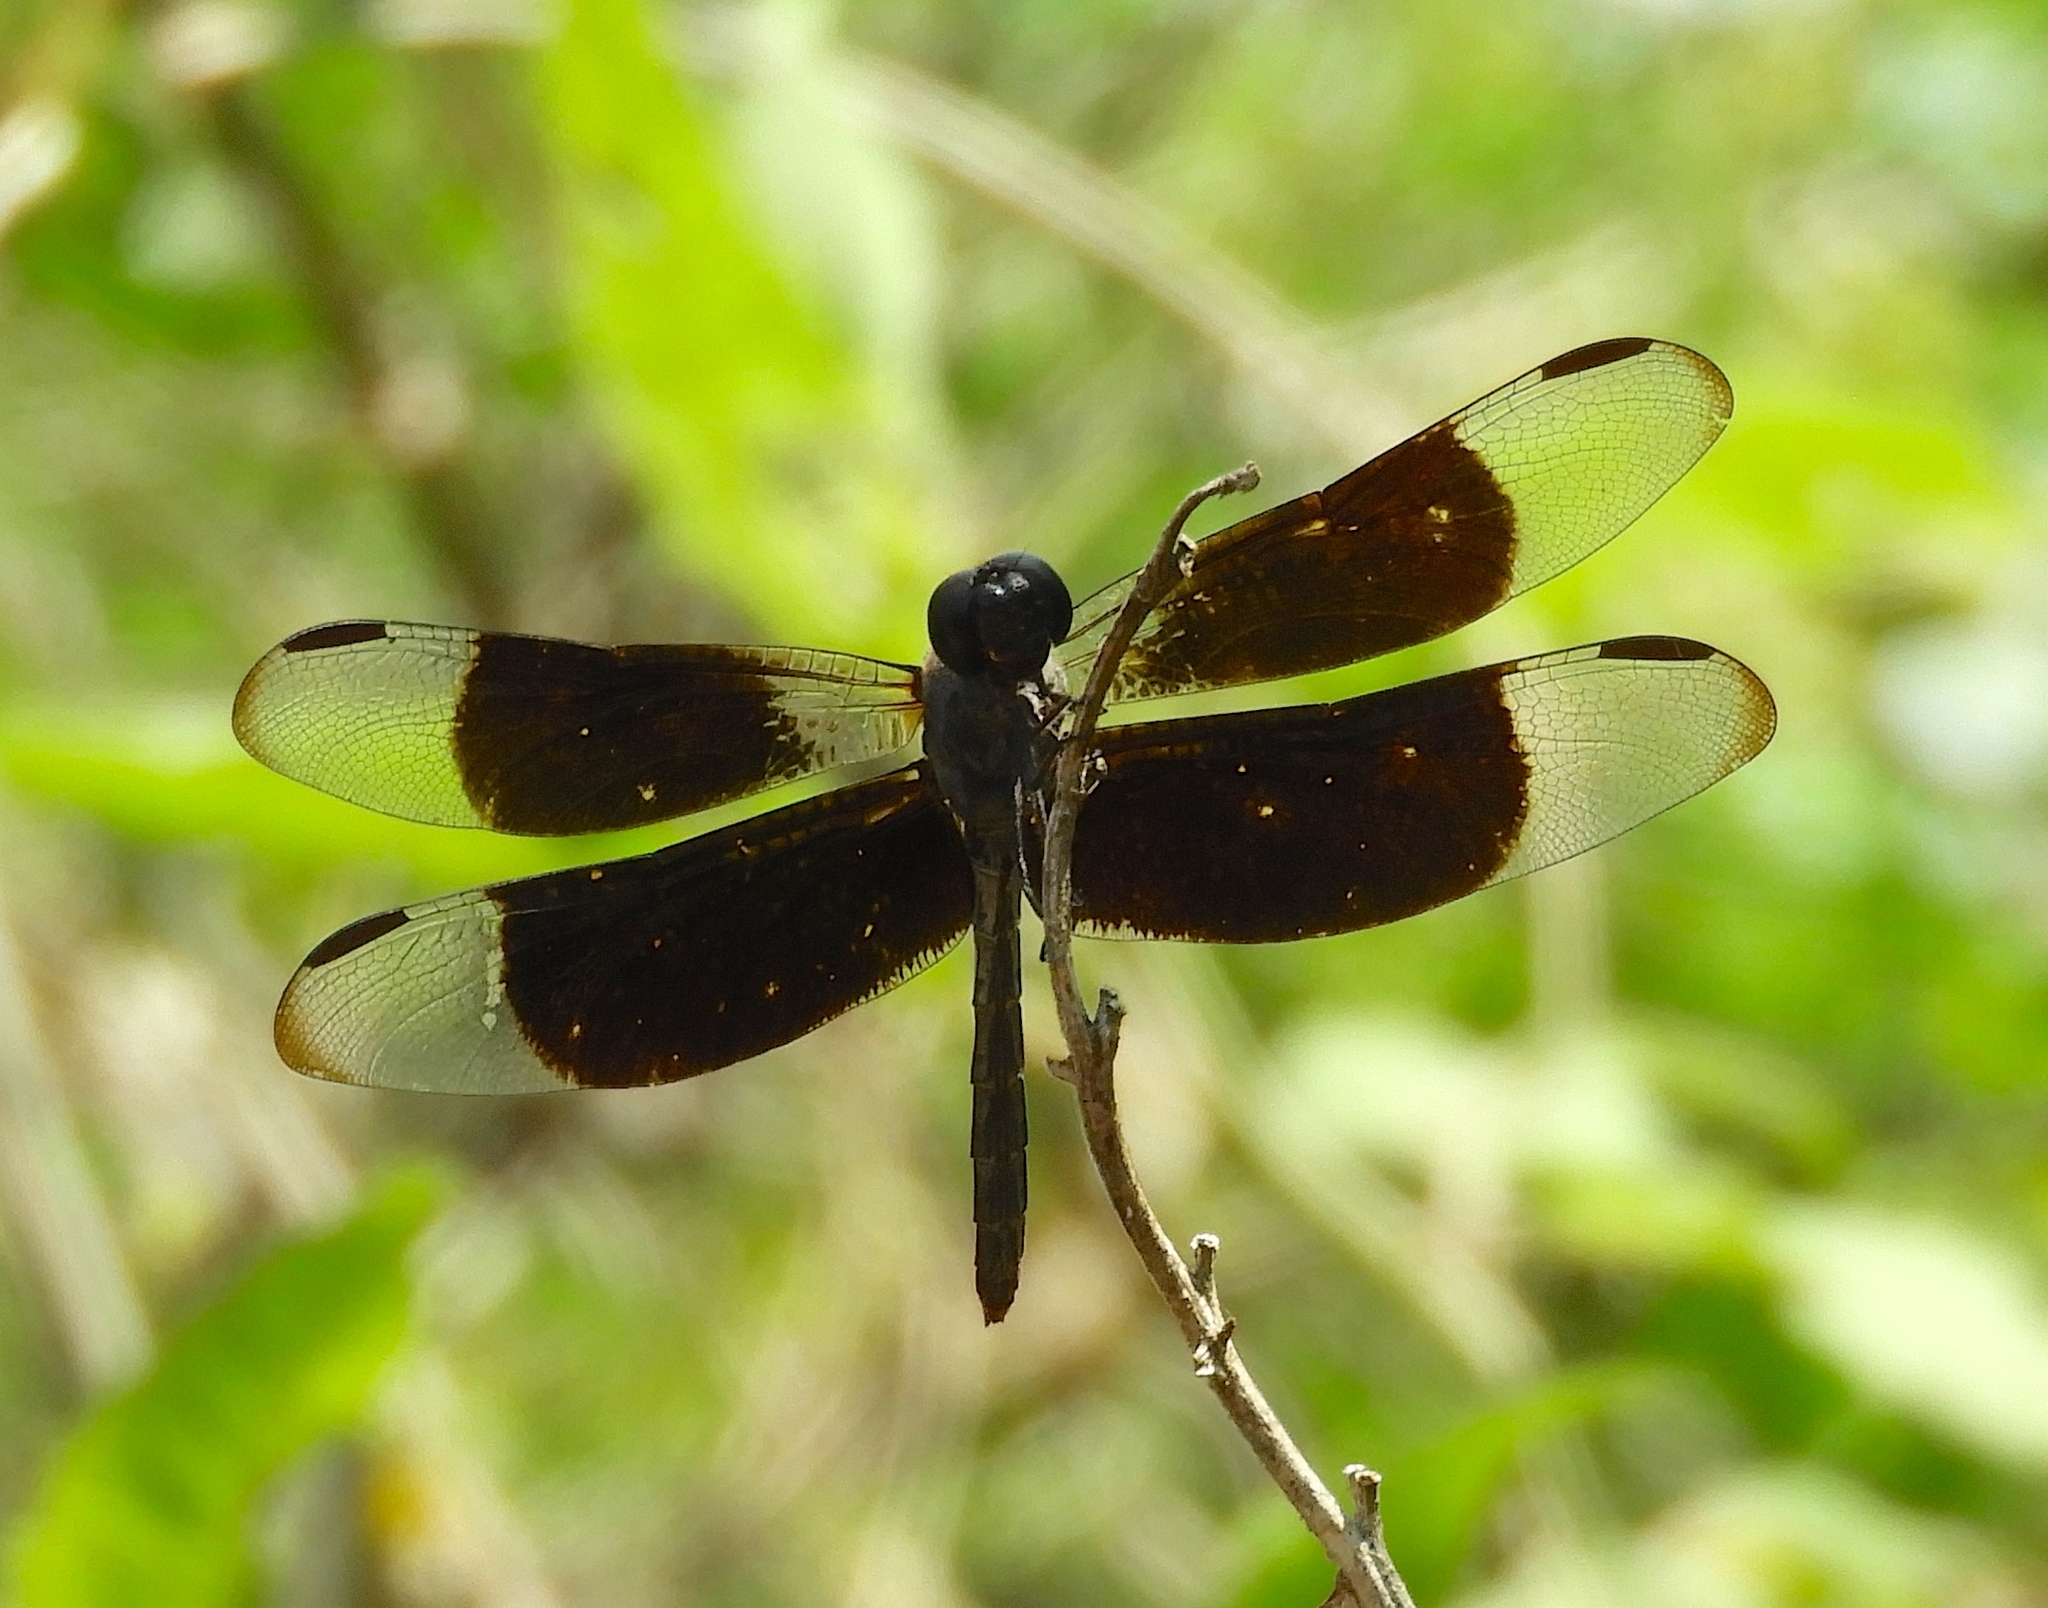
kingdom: Animalia
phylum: Arthropoda
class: Insecta
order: Odonata
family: Libellulidae
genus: Erythrodiplax
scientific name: Erythrodiplax funerea
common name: Black-winged dragonlet
